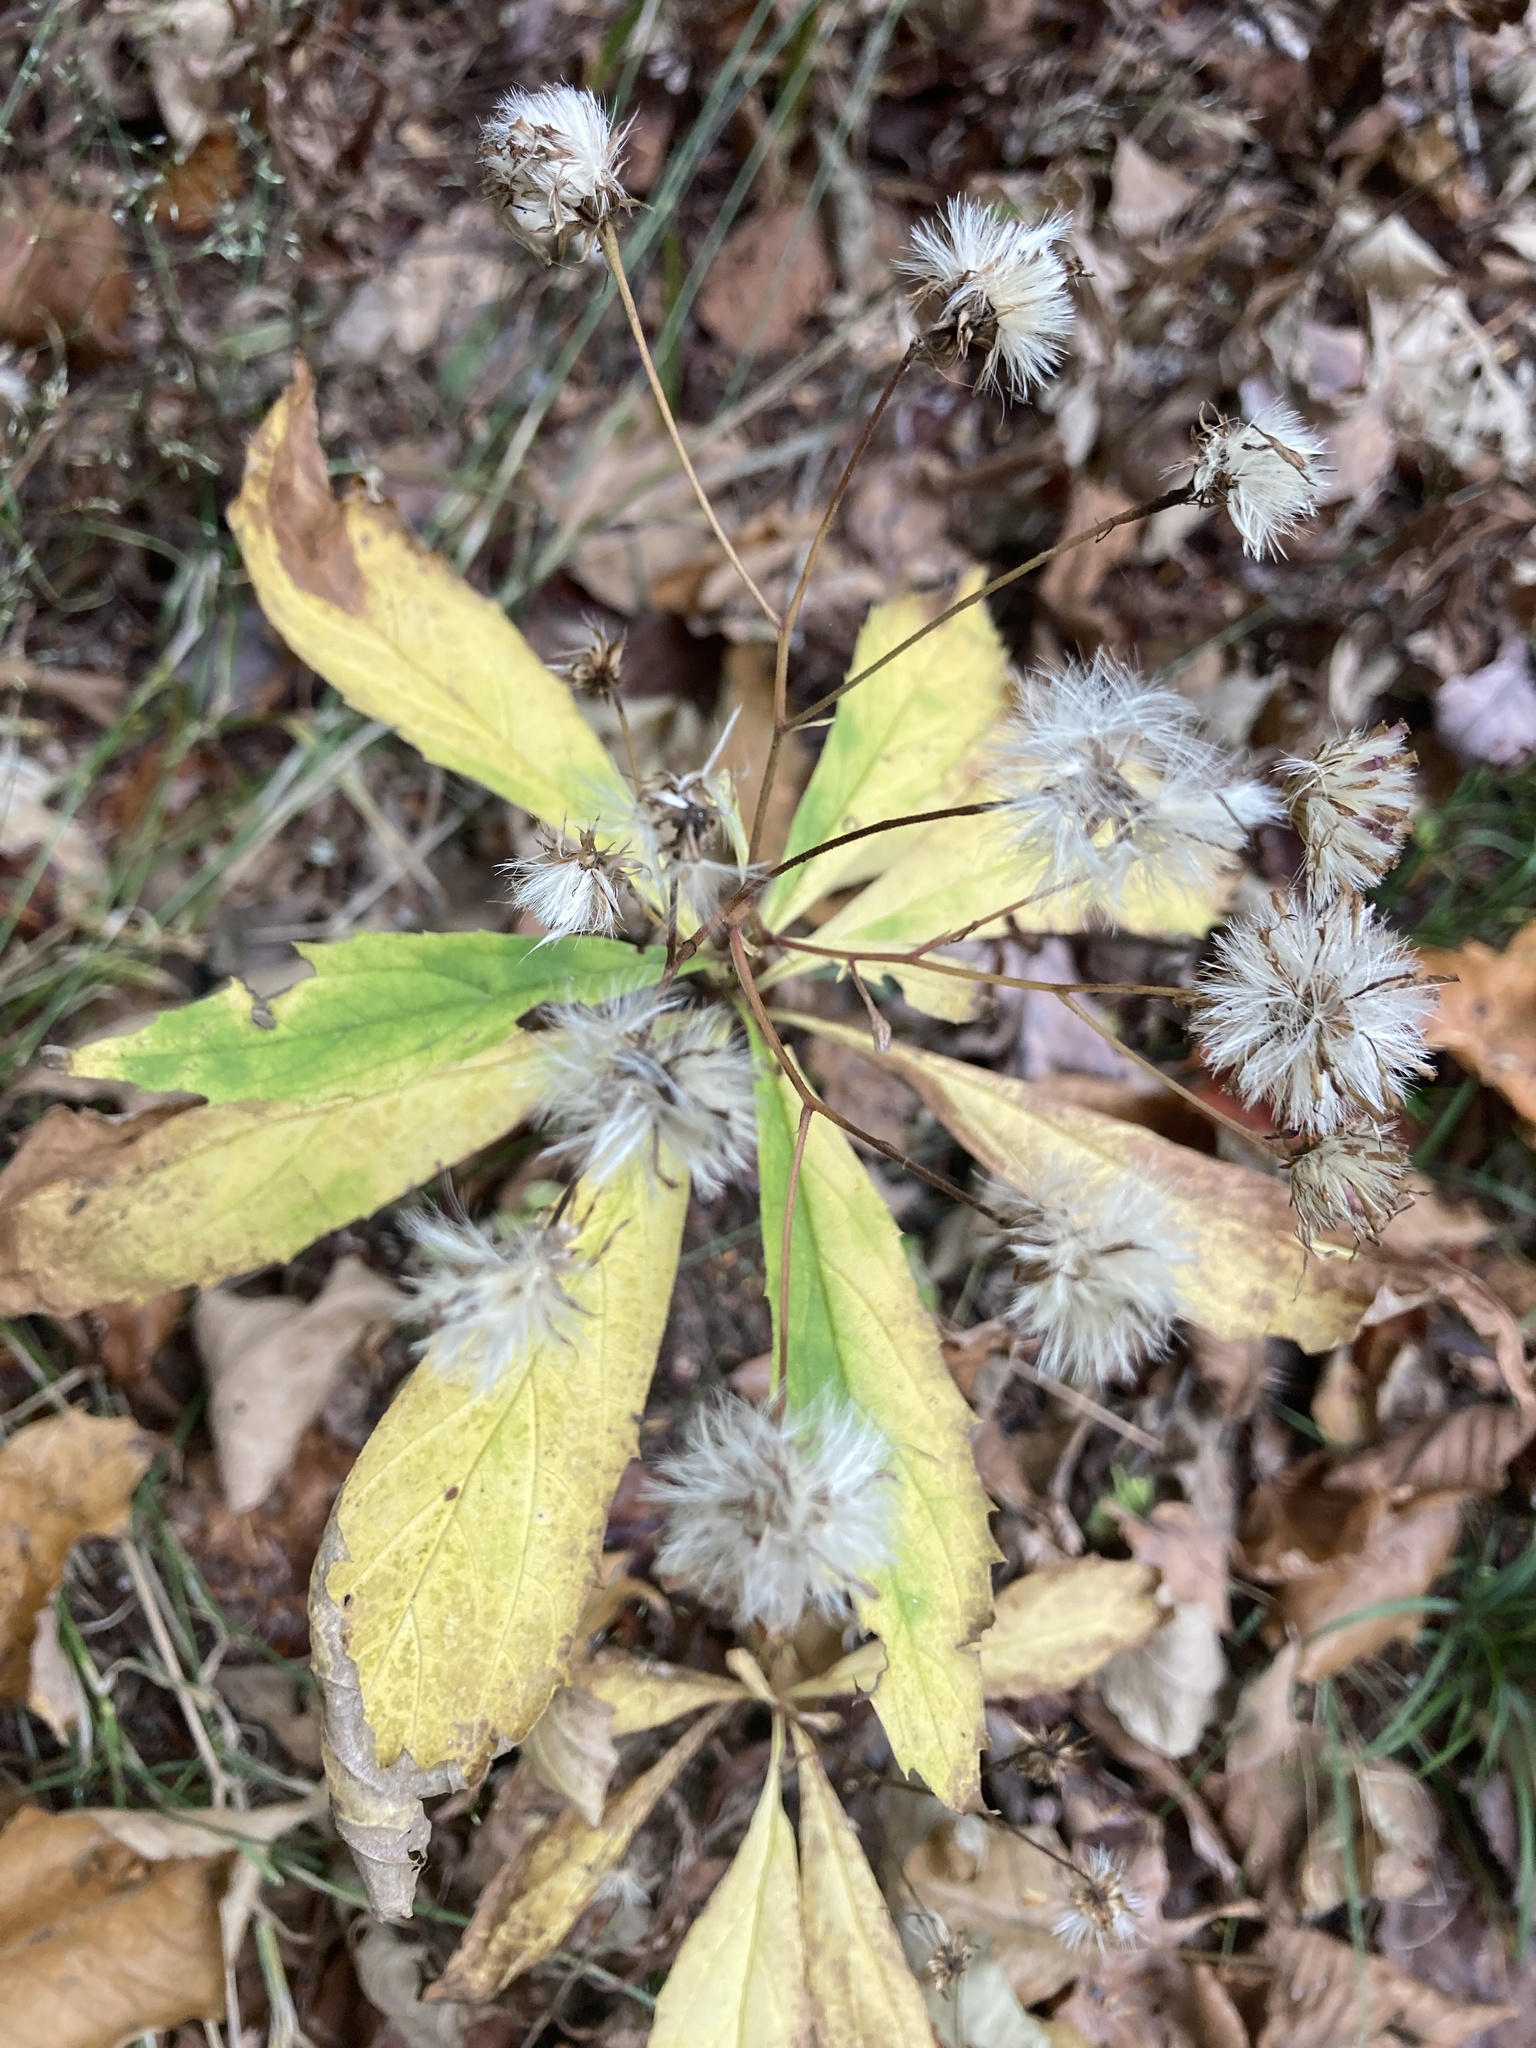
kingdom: Plantae
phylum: Tracheophyta
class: Magnoliopsida
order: Asterales
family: Asteraceae
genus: Oclemena
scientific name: Oclemena acuminata
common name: Mountain aster
